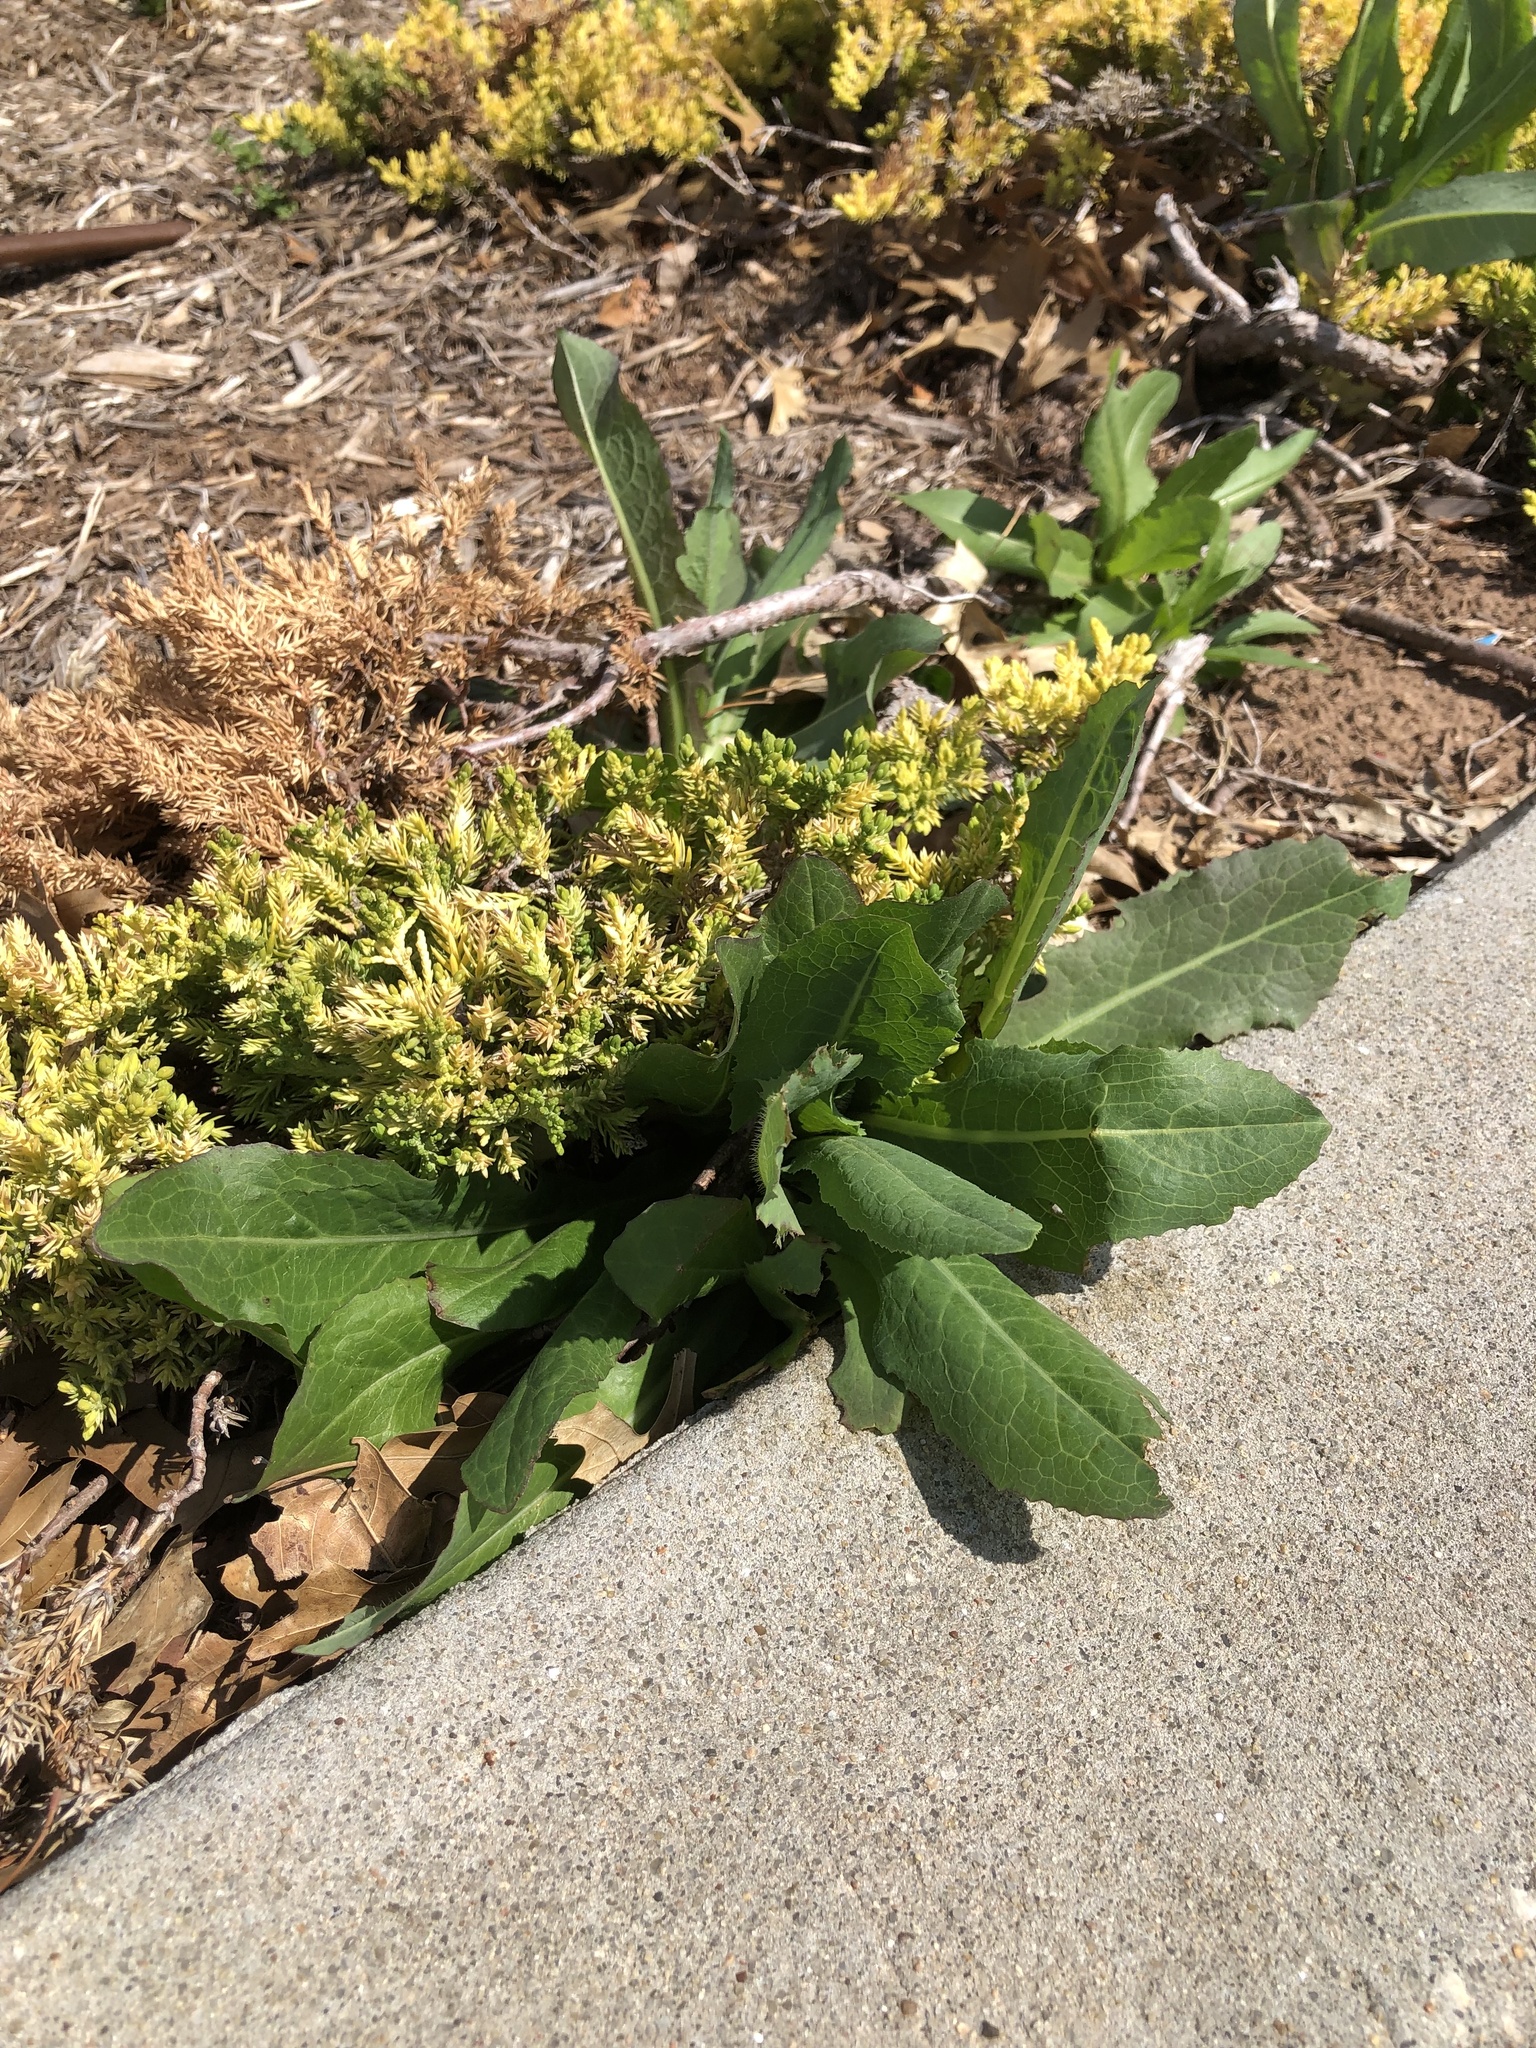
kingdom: Plantae
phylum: Tracheophyta
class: Magnoliopsida
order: Asterales
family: Asteraceae
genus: Lactuca
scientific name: Lactuca serriola
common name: Prickly lettuce
